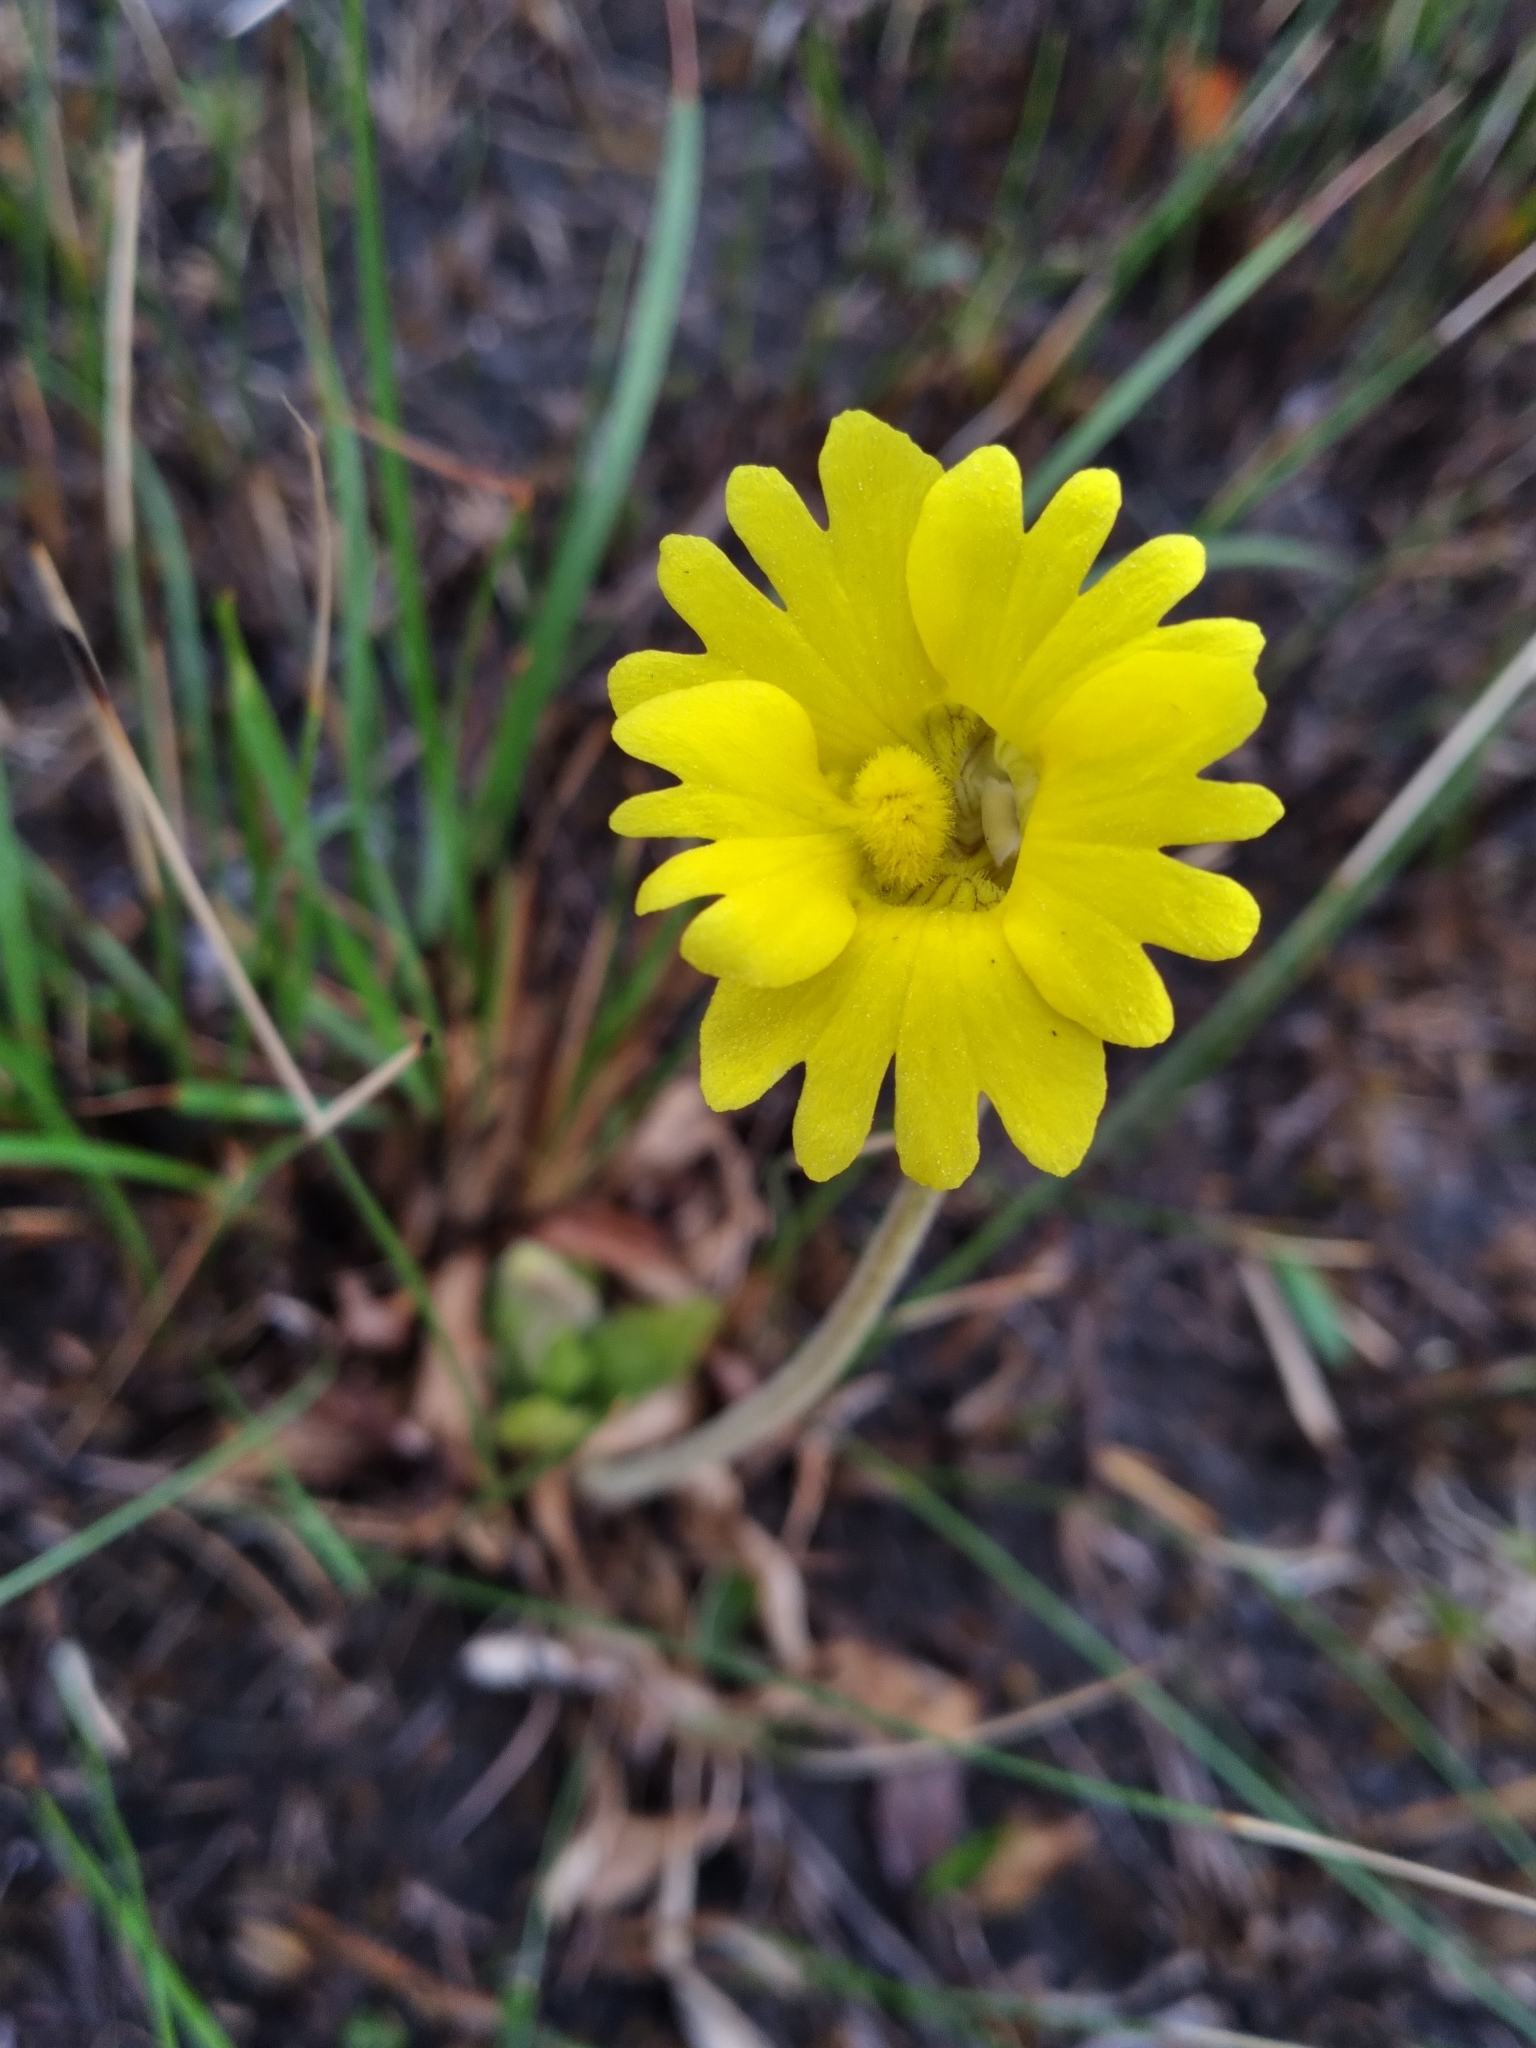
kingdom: Plantae
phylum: Tracheophyta
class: Magnoliopsida
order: Lamiales
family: Lentibulariaceae
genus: Pinguicula
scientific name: Pinguicula lutea
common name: Yellow butterwort
